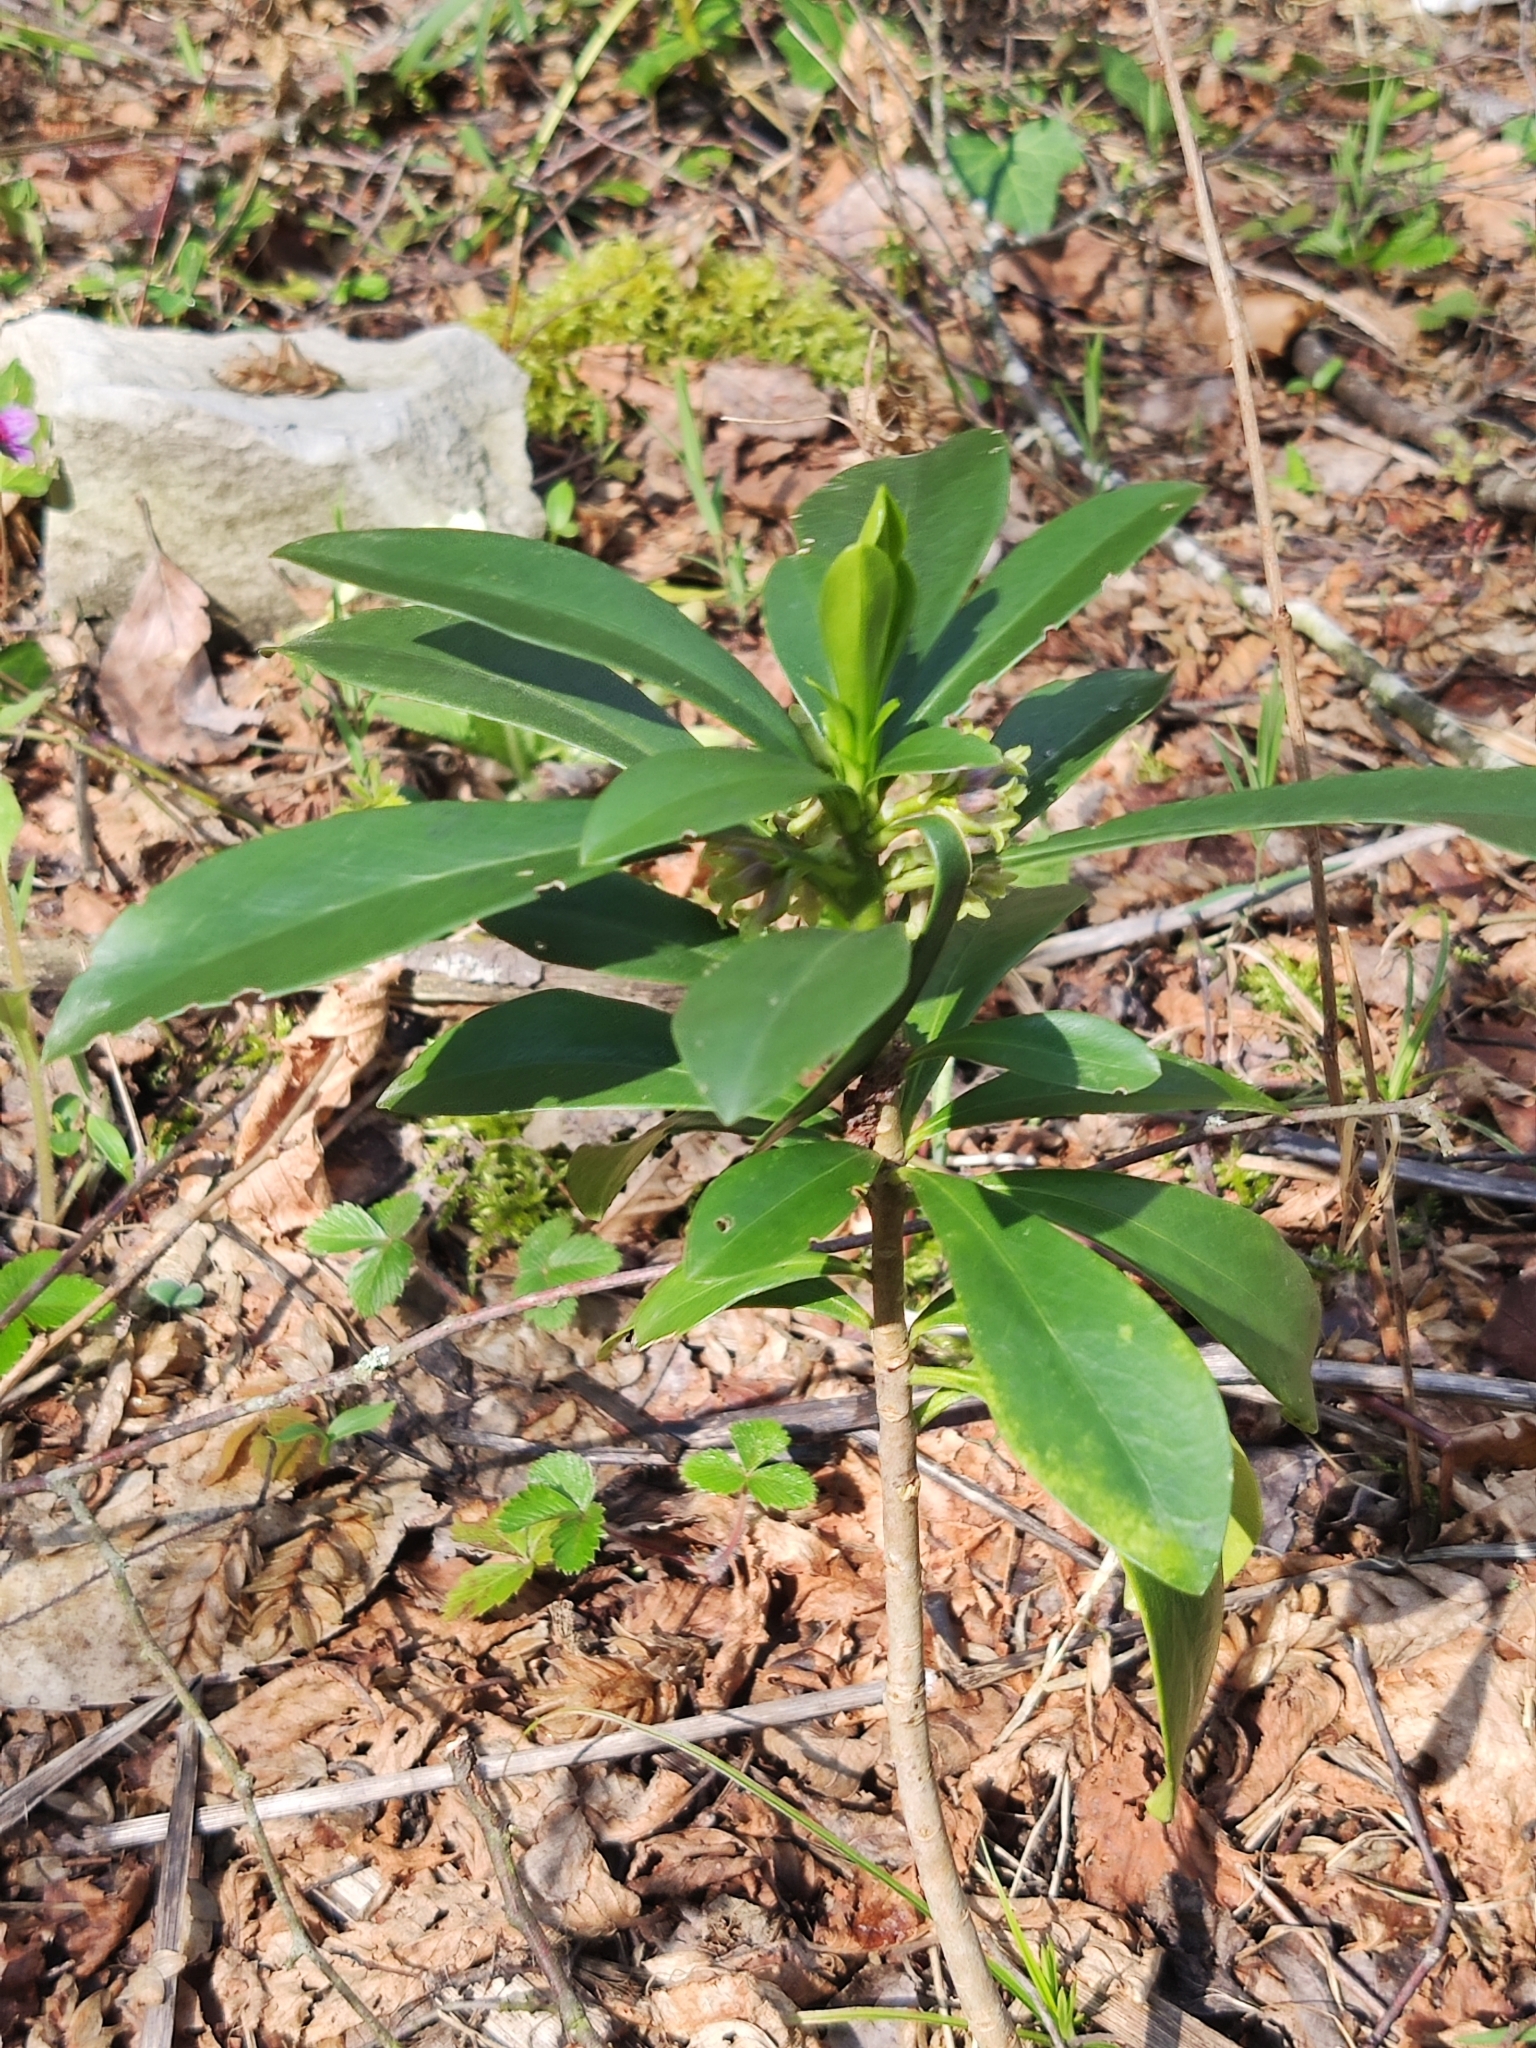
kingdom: Plantae
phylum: Tracheophyta
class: Magnoliopsida
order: Malvales
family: Thymelaeaceae
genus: Daphne
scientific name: Daphne laureola
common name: Spurge-laurel
